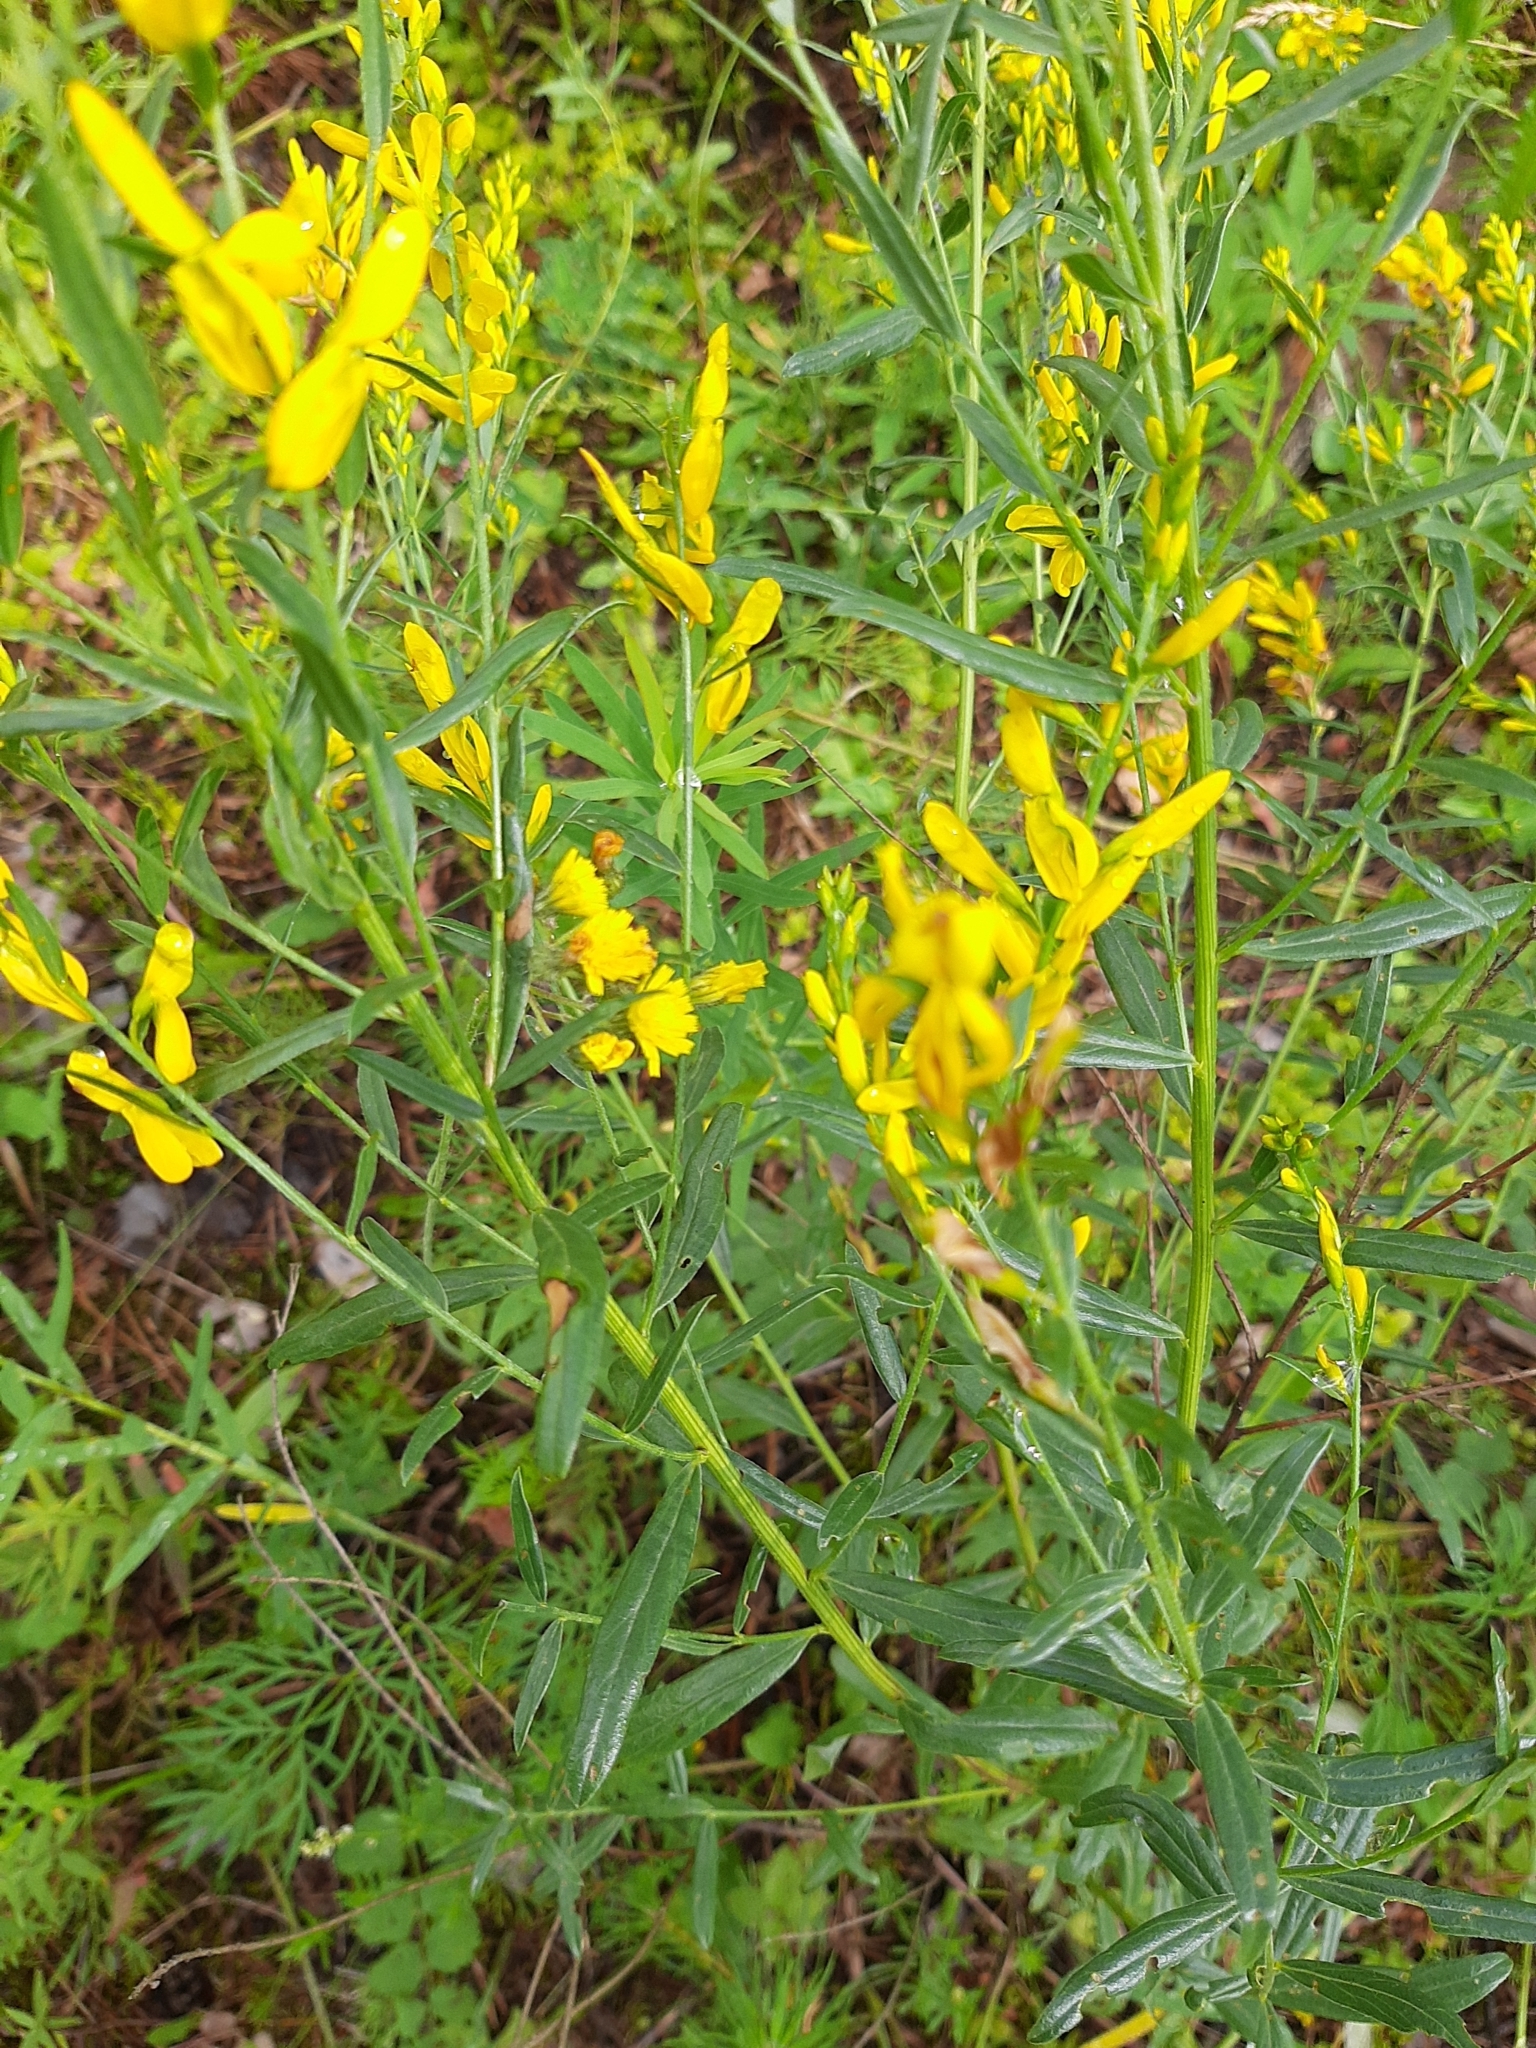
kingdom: Plantae
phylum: Tracheophyta
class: Magnoliopsida
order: Fabales
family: Fabaceae
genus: Genista
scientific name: Genista tinctoria
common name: Dyer's greenweed
